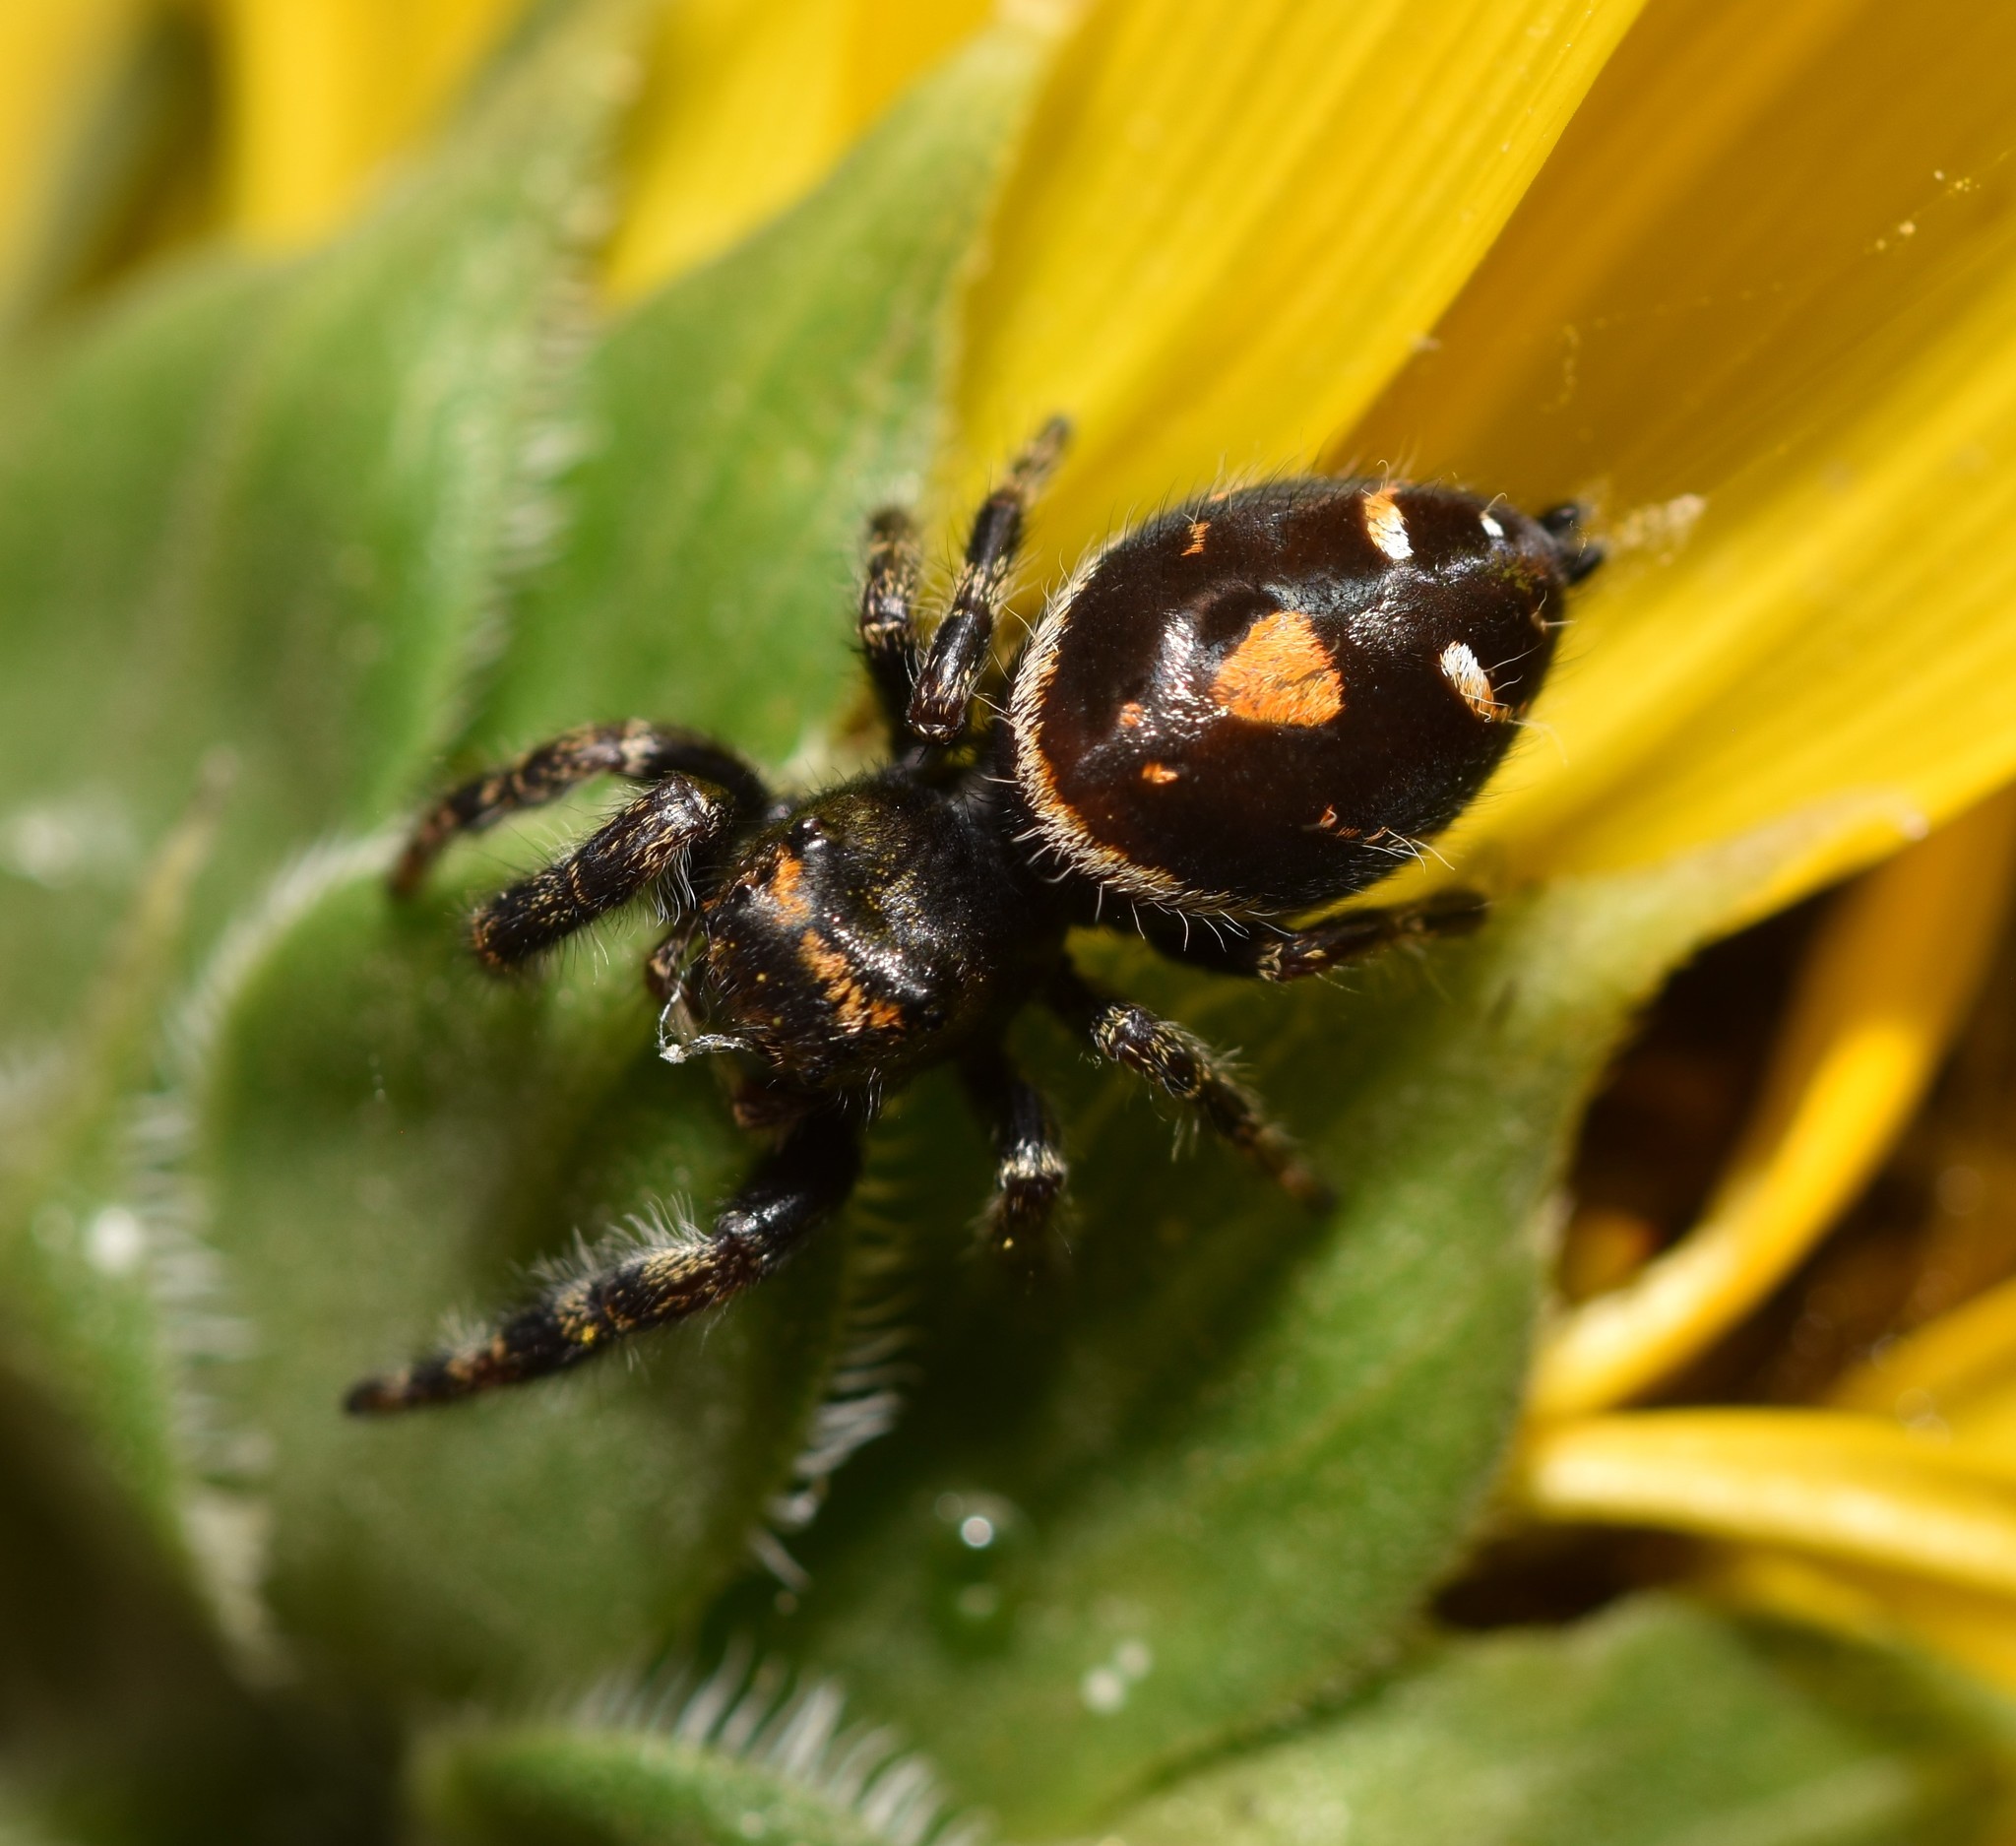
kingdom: Animalia
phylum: Arthropoda
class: Arachnida
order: Araneae
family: Salticidae
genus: Phidippus
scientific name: Phidippus audax
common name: Bold jumper
